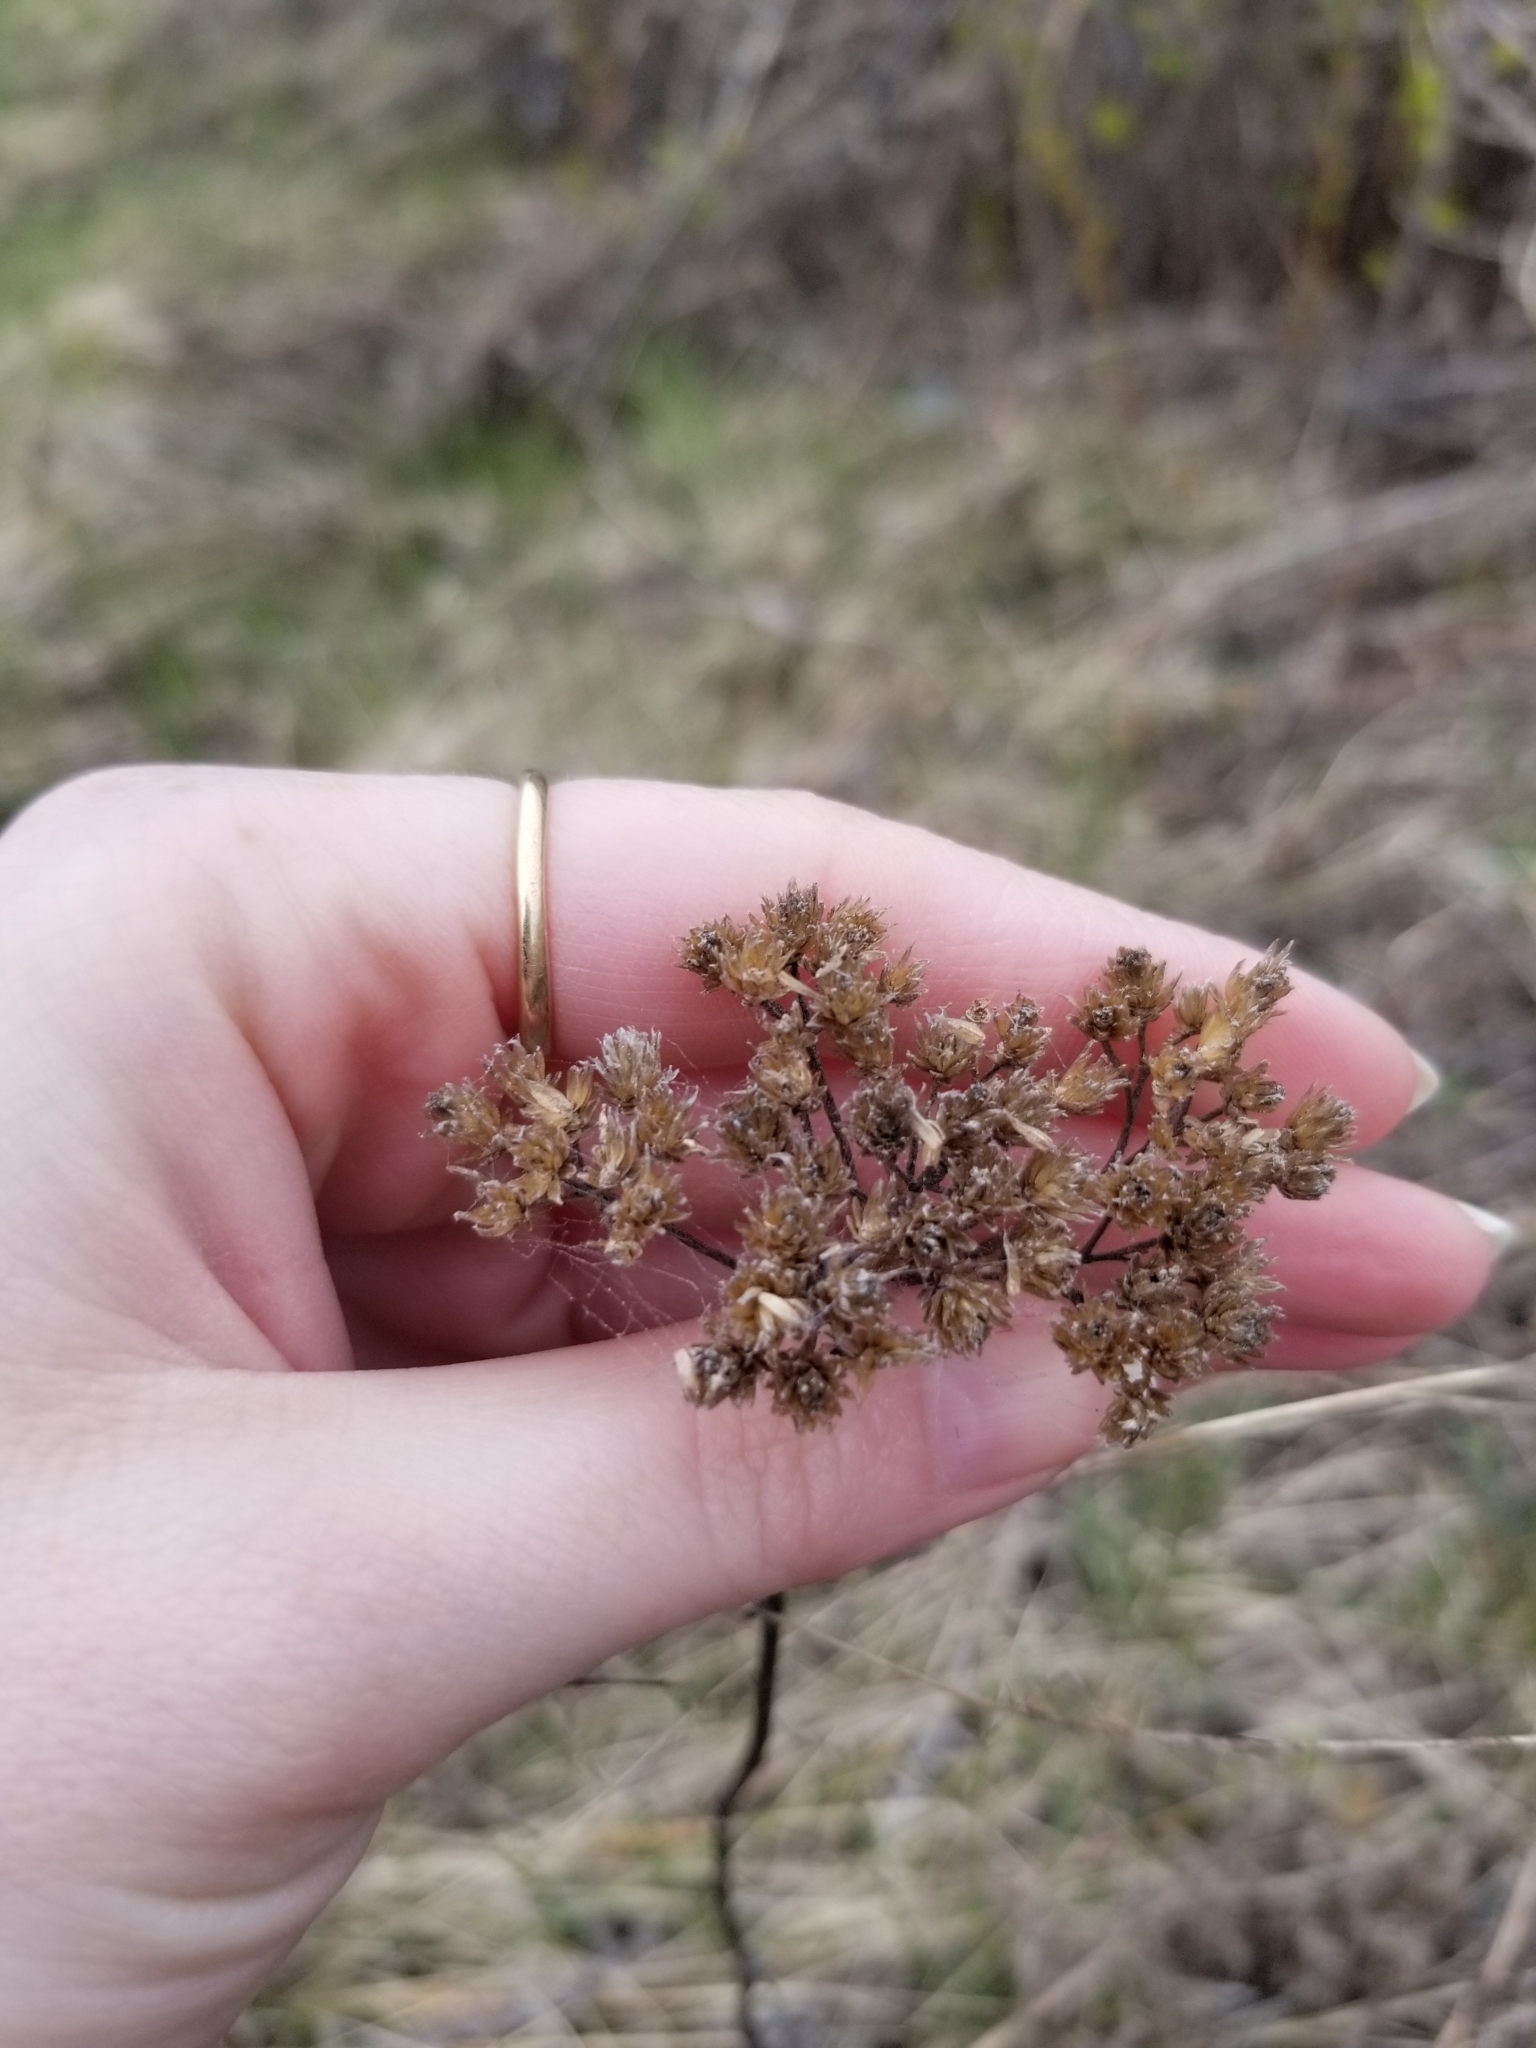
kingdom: Plantae
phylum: Tracheophyta
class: Magnoliopsida
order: Asterales
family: Asteraceae
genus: Achillea
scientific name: Achillea millefolium
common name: Yarrow
